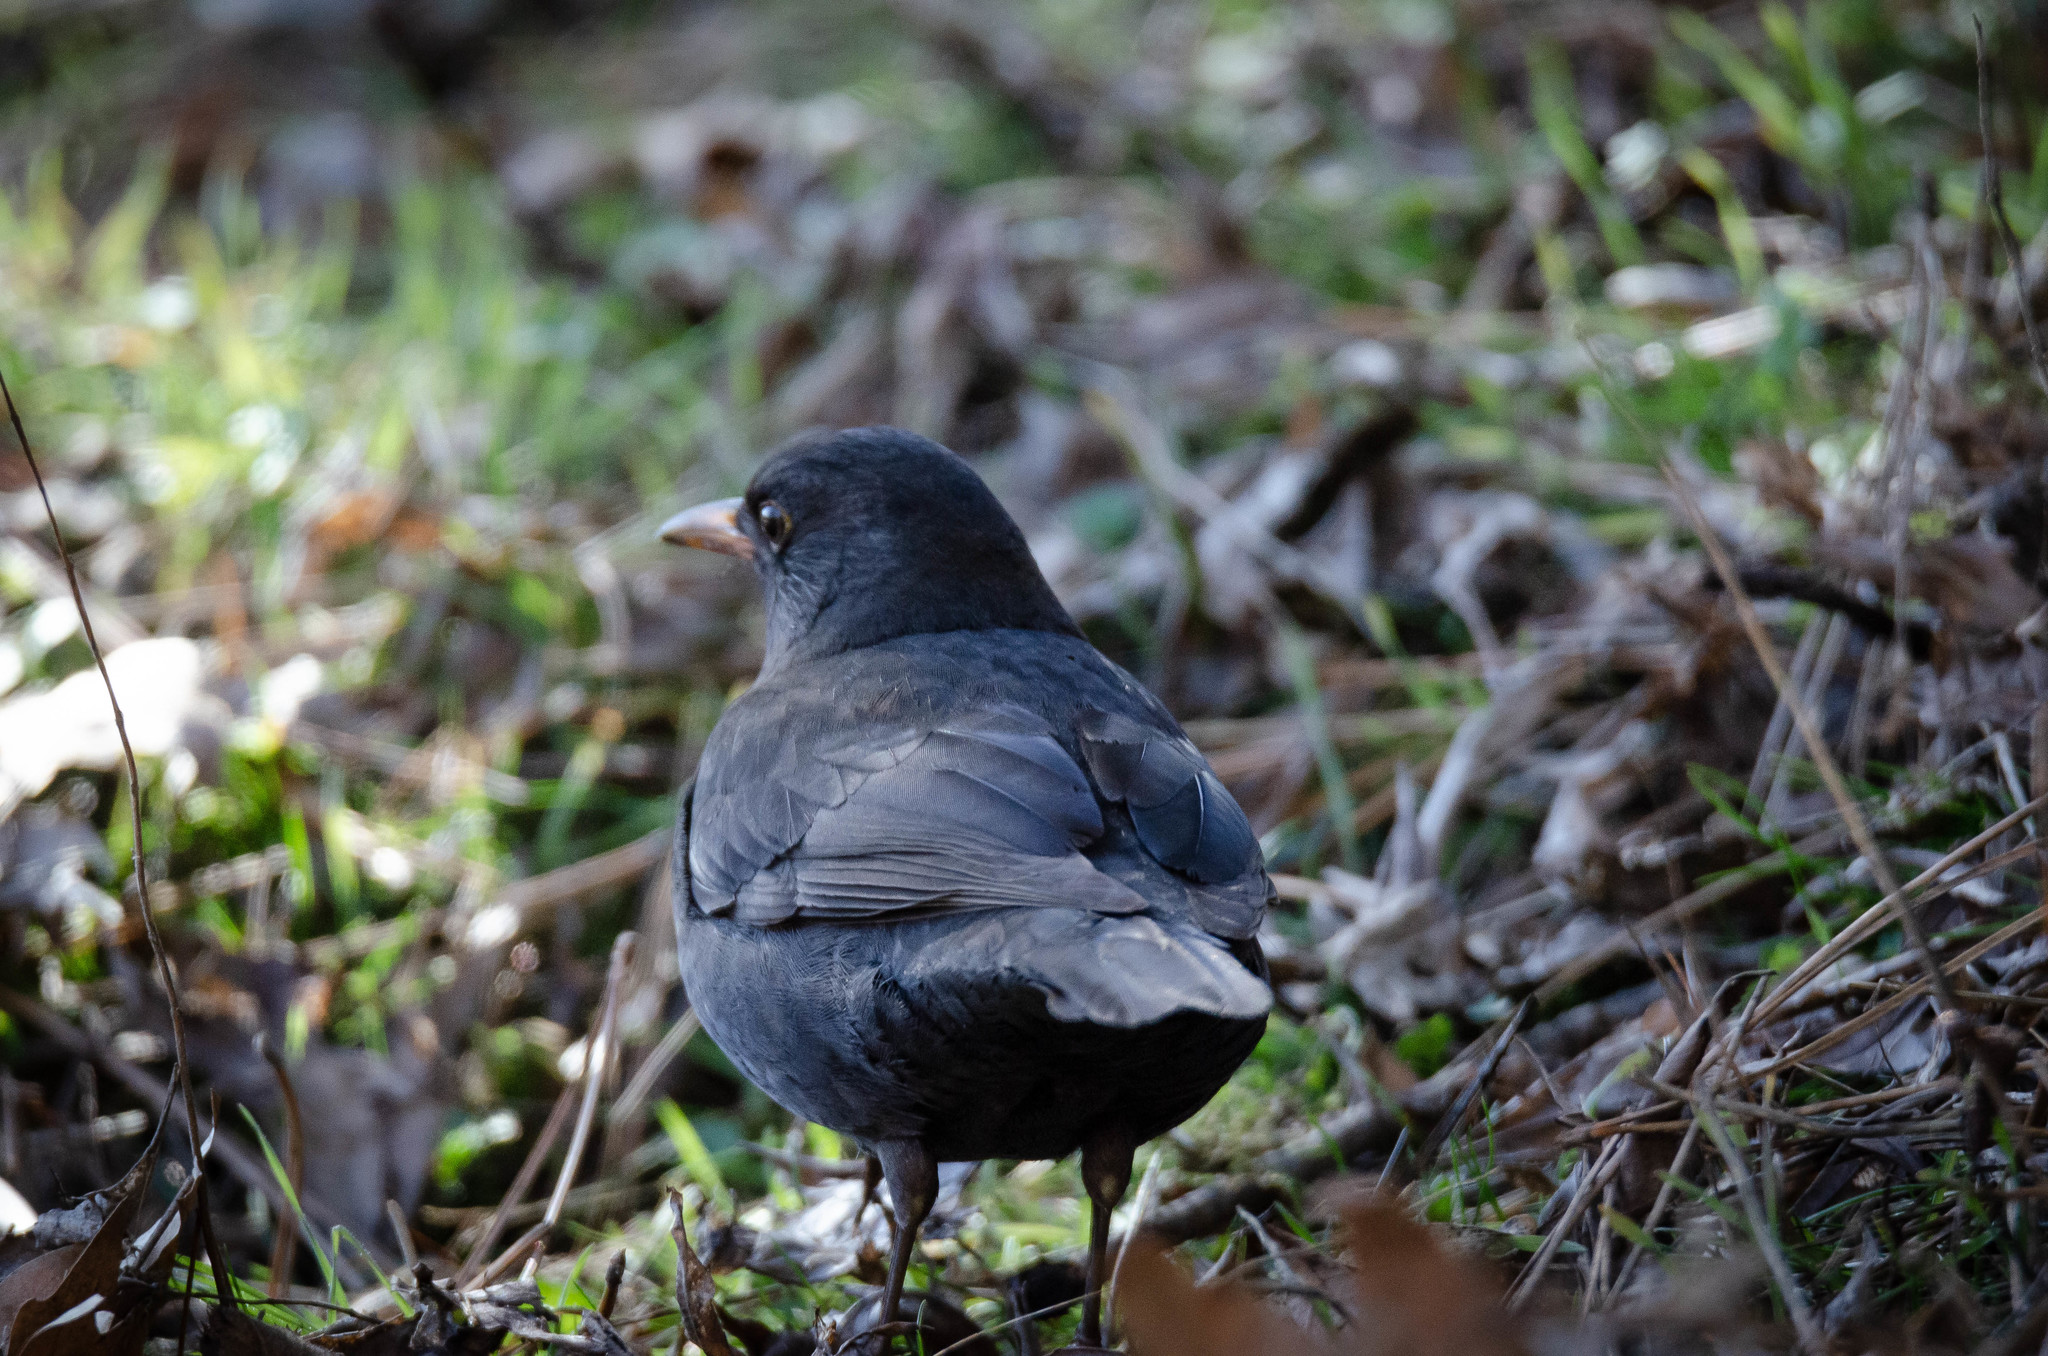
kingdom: Animalia
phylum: Chordata
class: Aves
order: Passeriformes
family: Turdidae
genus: Turdus
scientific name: Turdus merula
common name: Common blackbird
